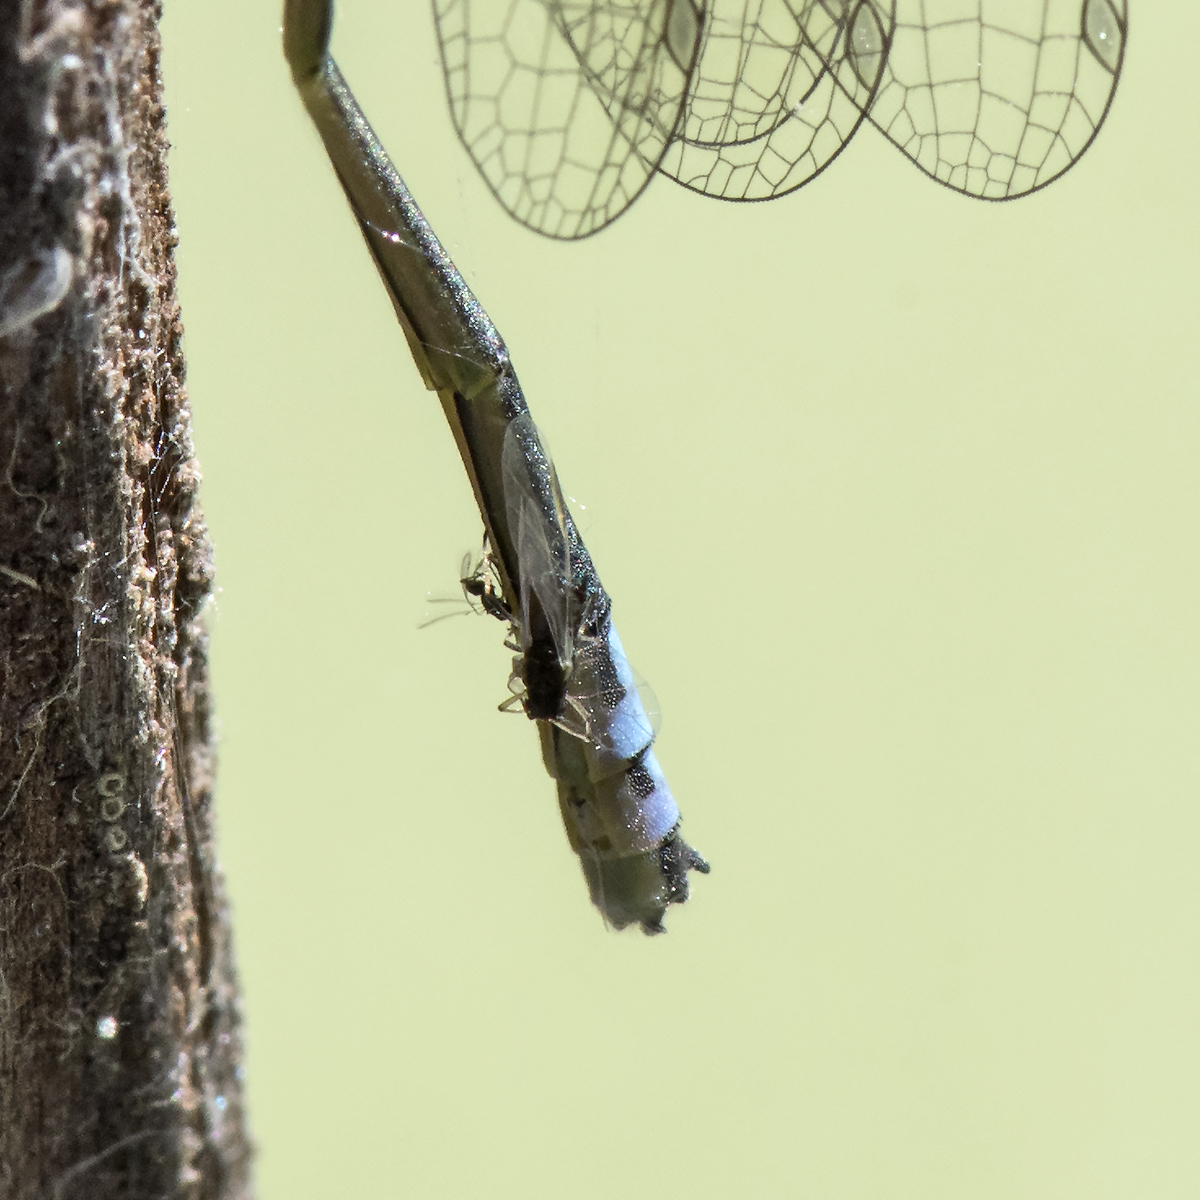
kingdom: Animalia
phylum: Arthropoda
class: Insecta
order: Odonata
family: Coenagrionidae
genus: Ischnura
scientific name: Ischnura cervula
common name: Pacific forktail
